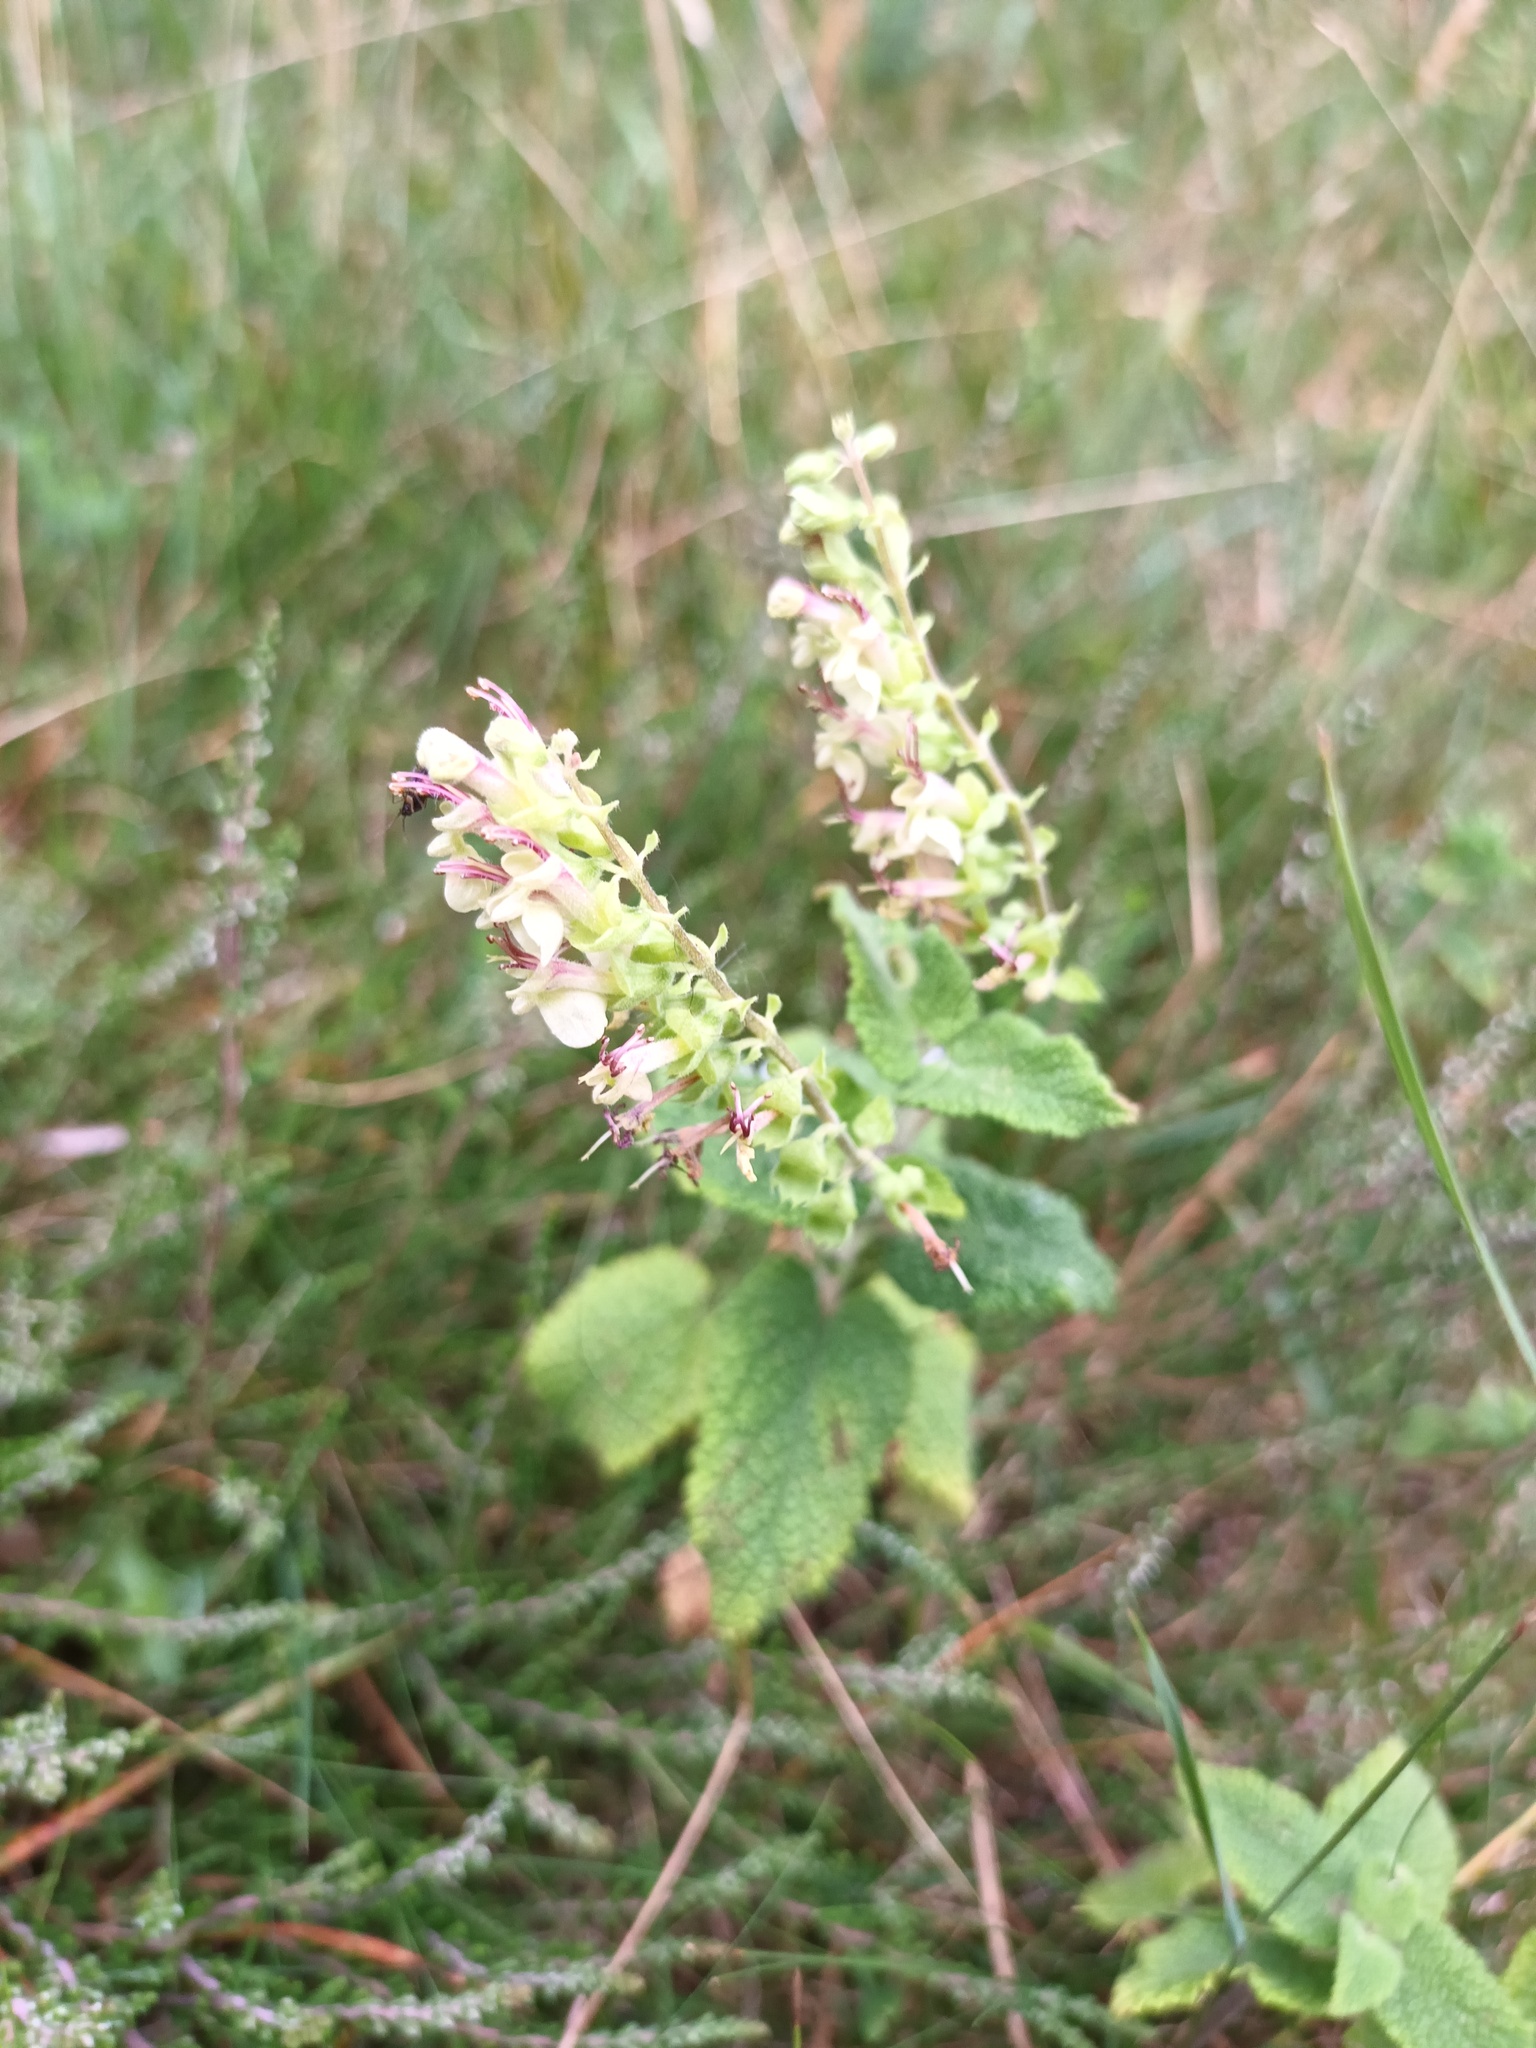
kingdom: Plantae
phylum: Tracheophyta
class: Magnoliopsida
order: Lamiales
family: Lamiaceae
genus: Teucrium
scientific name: Teucrium scorodonia
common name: Woodland germander
